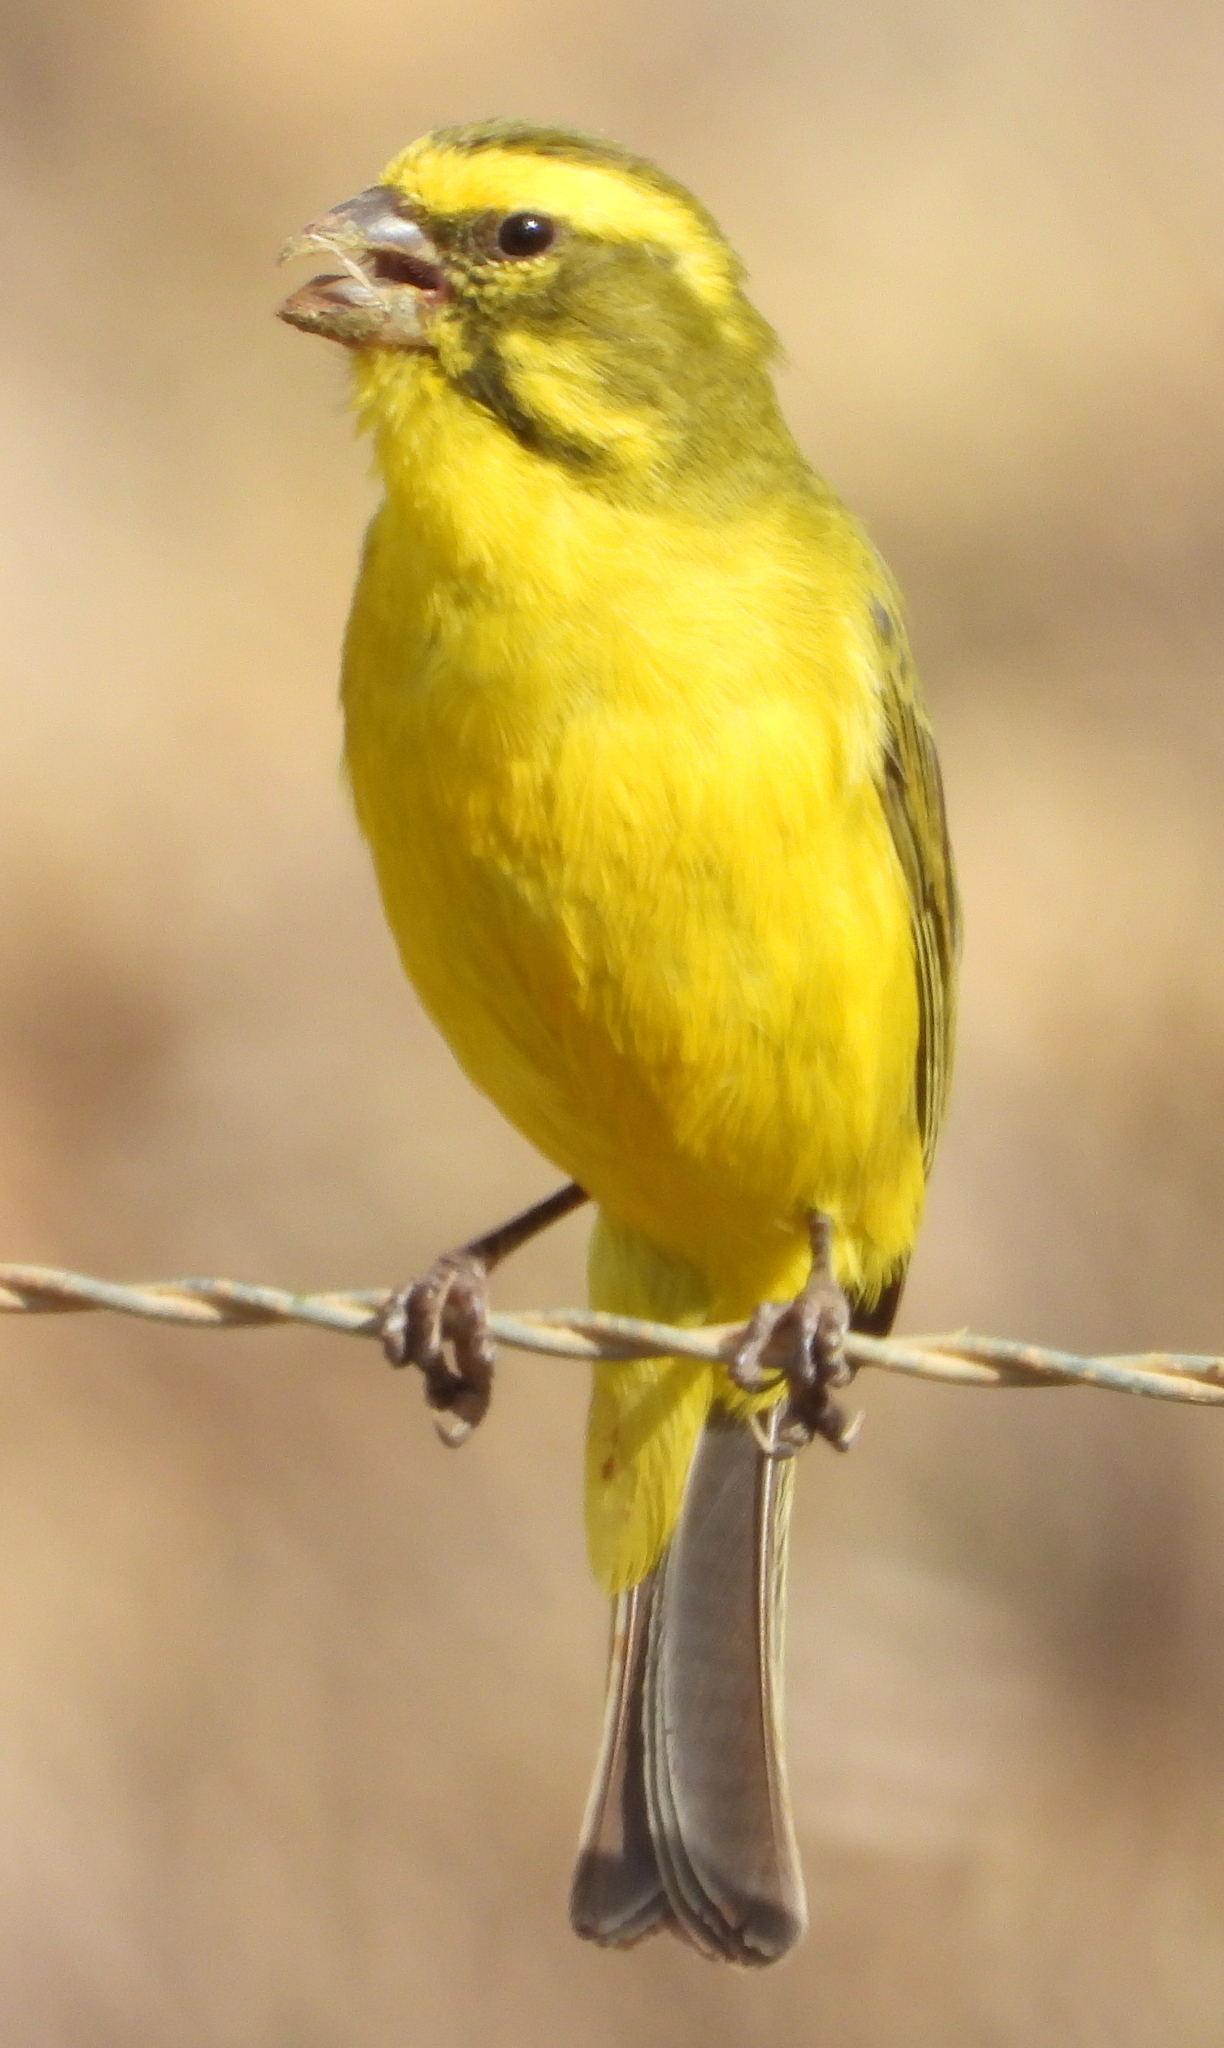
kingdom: Animalia
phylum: Chordata
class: Aves
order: Passeriformes
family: Fringillidae
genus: Crithagra
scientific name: Crithagra flaviventris
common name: Yellow canary
